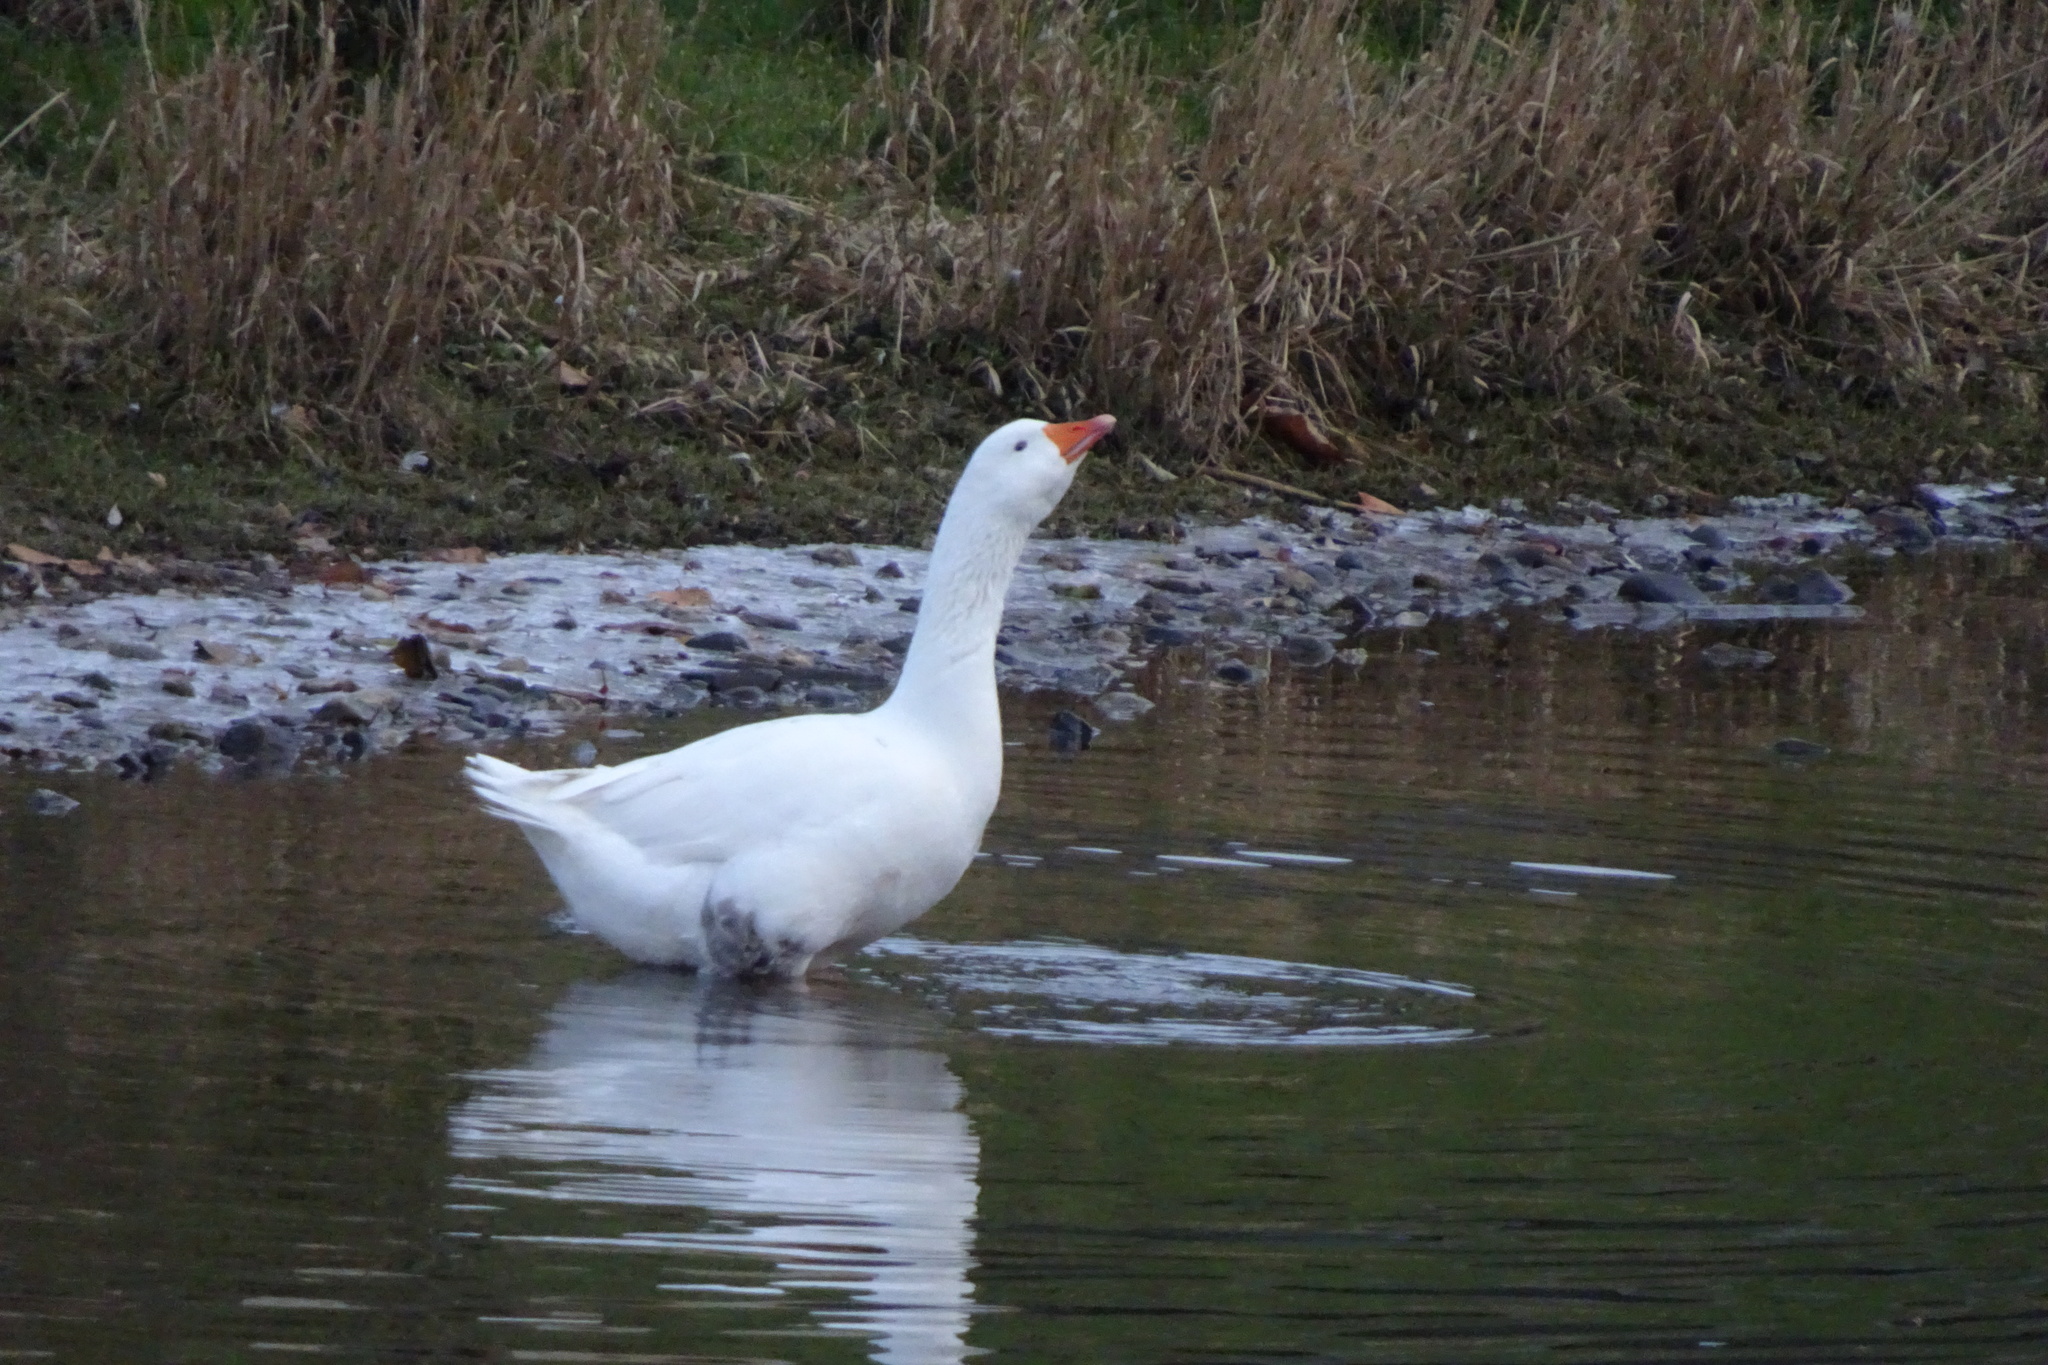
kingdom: Animalia
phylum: Chordata
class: Aves
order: Anseriformes
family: Anatidae
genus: Anser
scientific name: Anser anser
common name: Greylag goose
